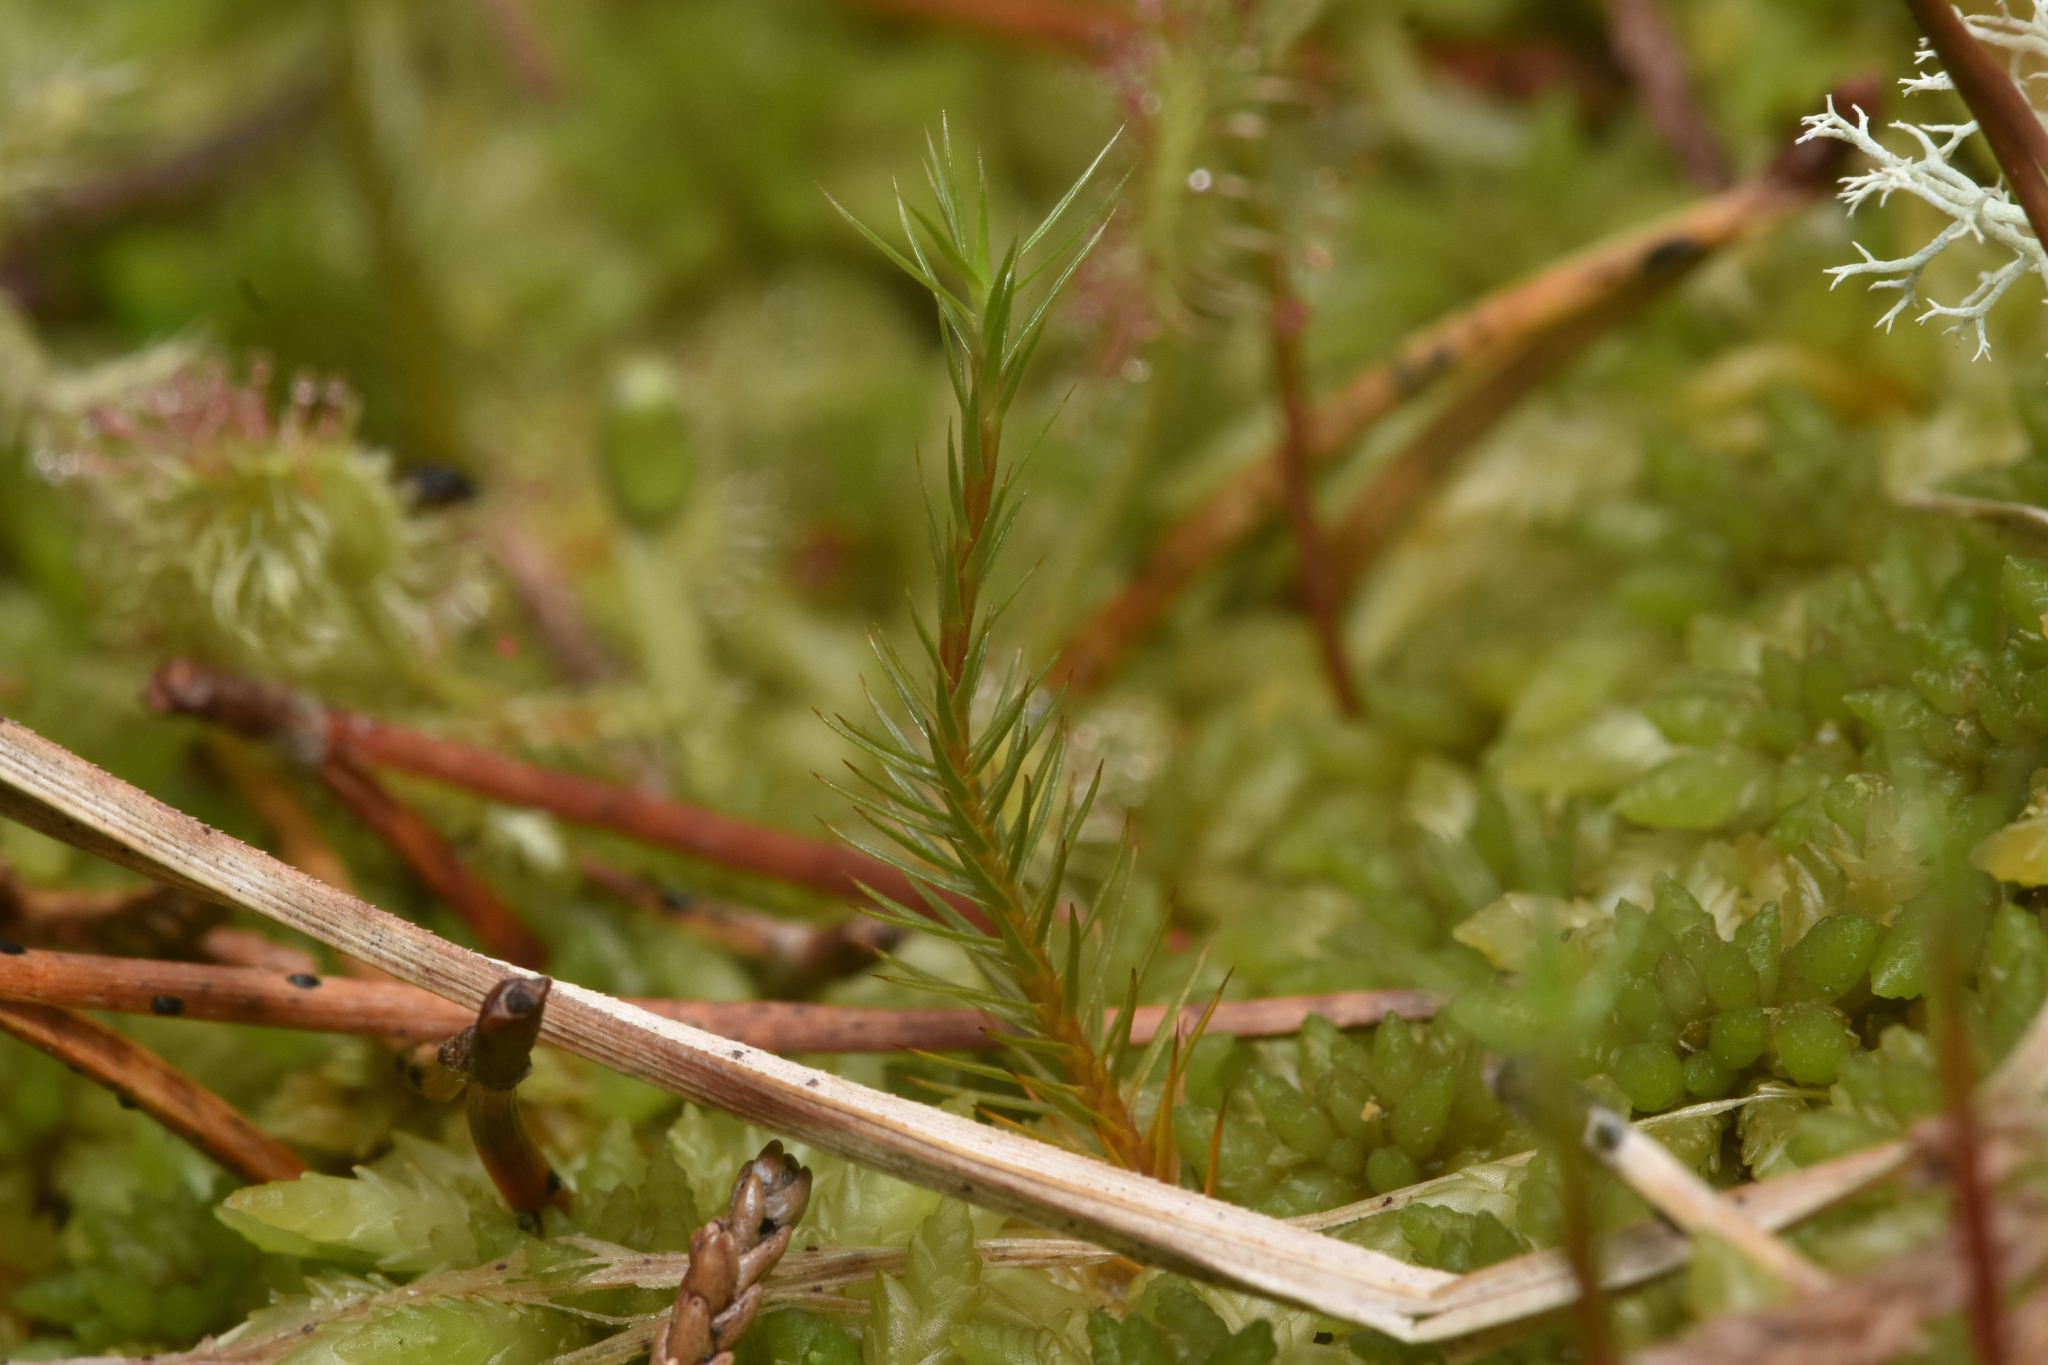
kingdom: Plantae
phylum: Bryophyta
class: Polytrichopsida
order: Polytrichales
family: Polytrichaceae
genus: Polytrichum
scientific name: Polytrichum strictum
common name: Bog haircap moss
